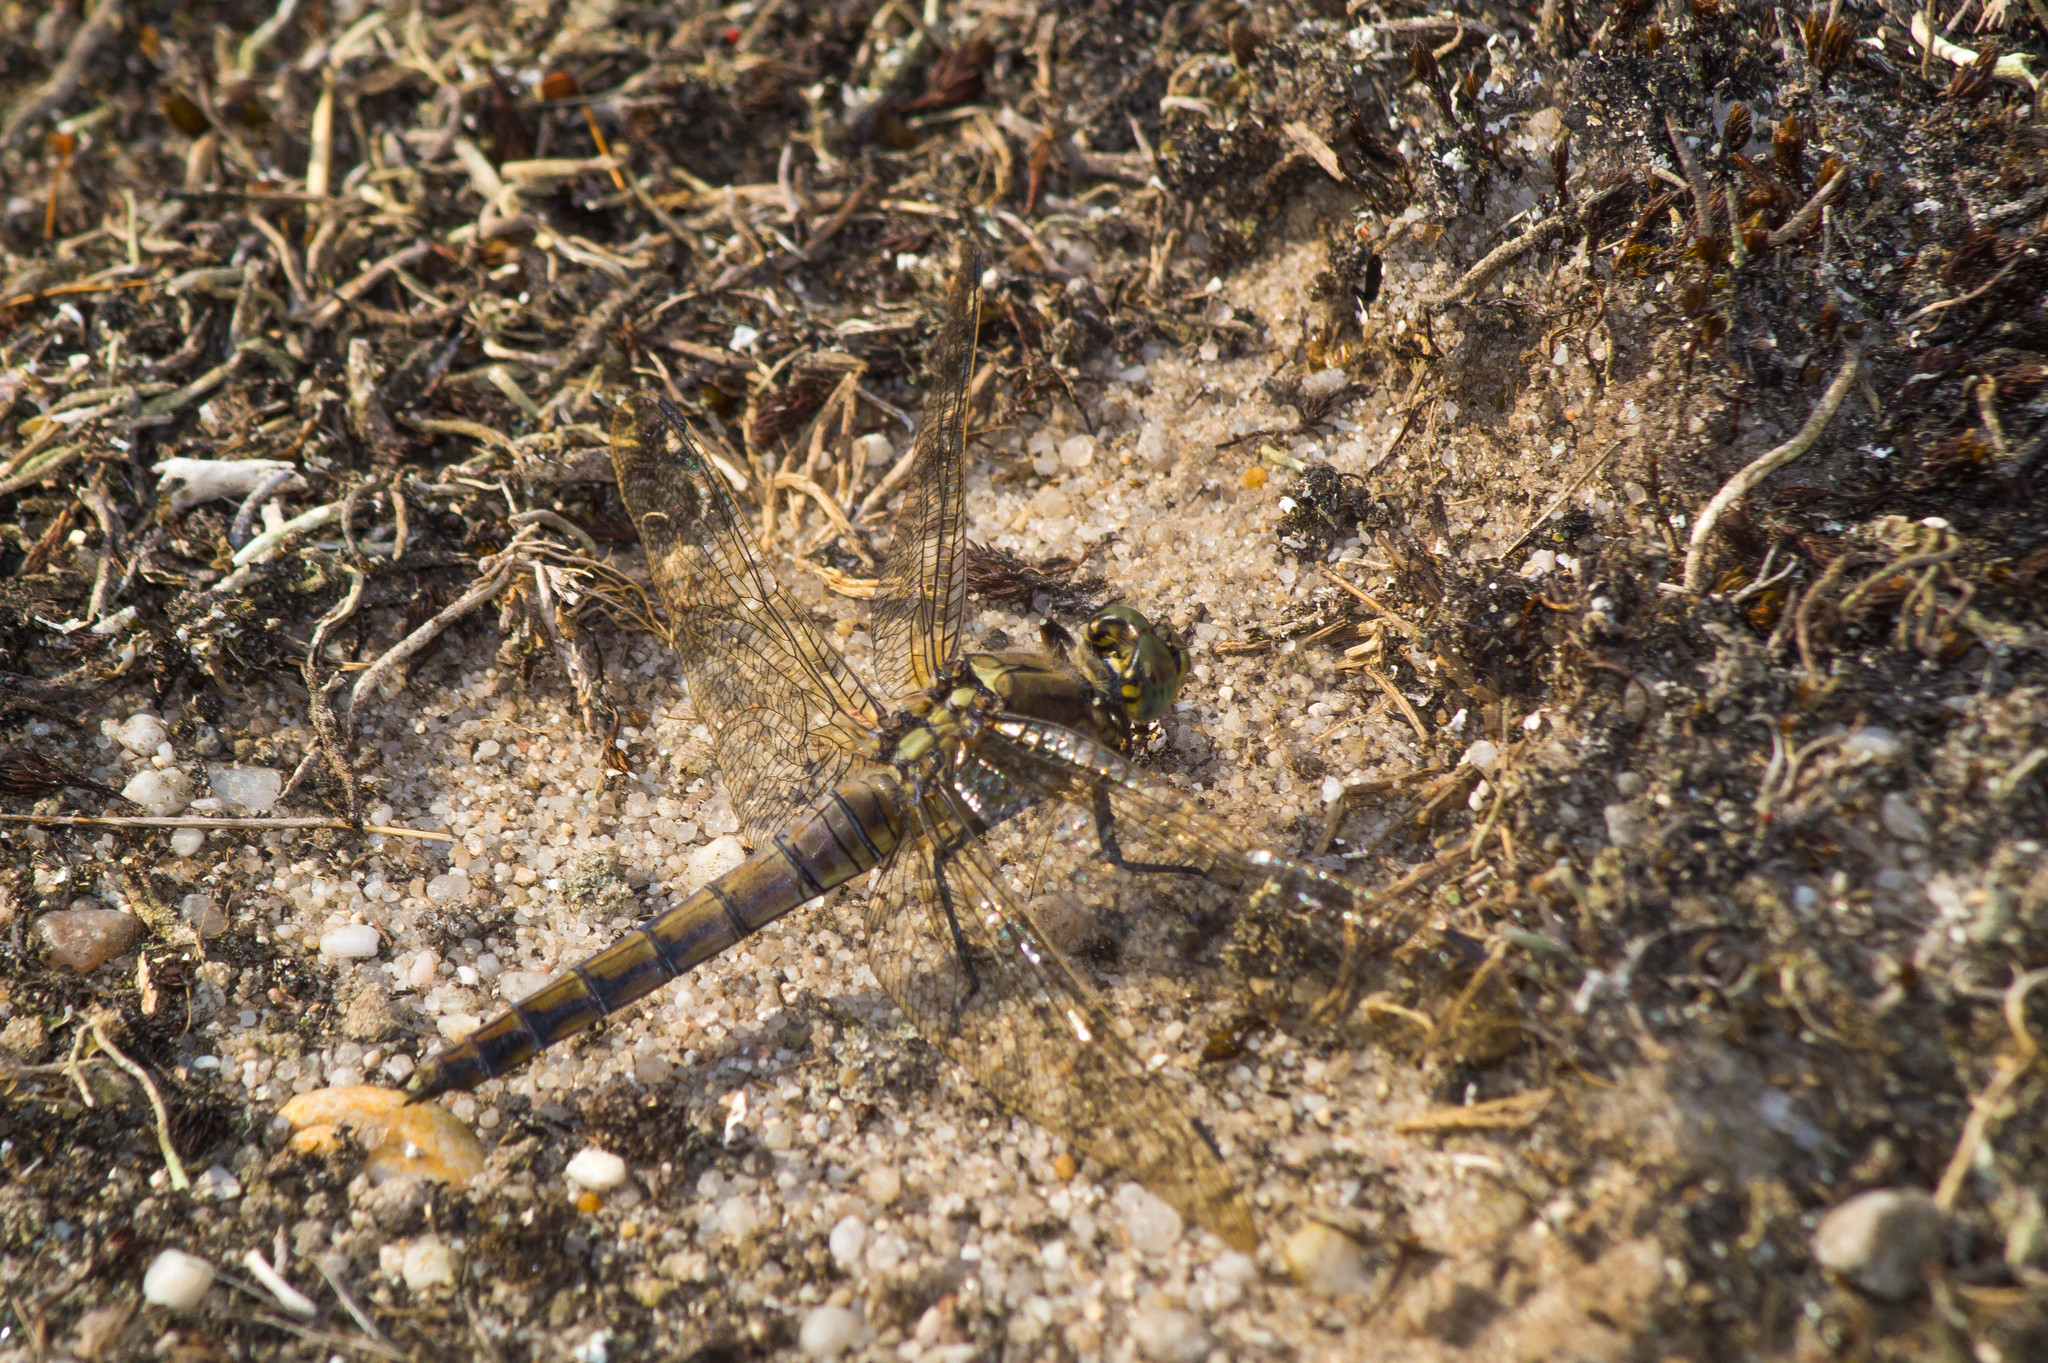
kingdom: Animalia
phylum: Arthropoda
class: Insecta
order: Odonata
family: Libellulidae
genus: Orthetrum
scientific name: Orthetrum cancellatum
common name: Black-tailed skimmer
